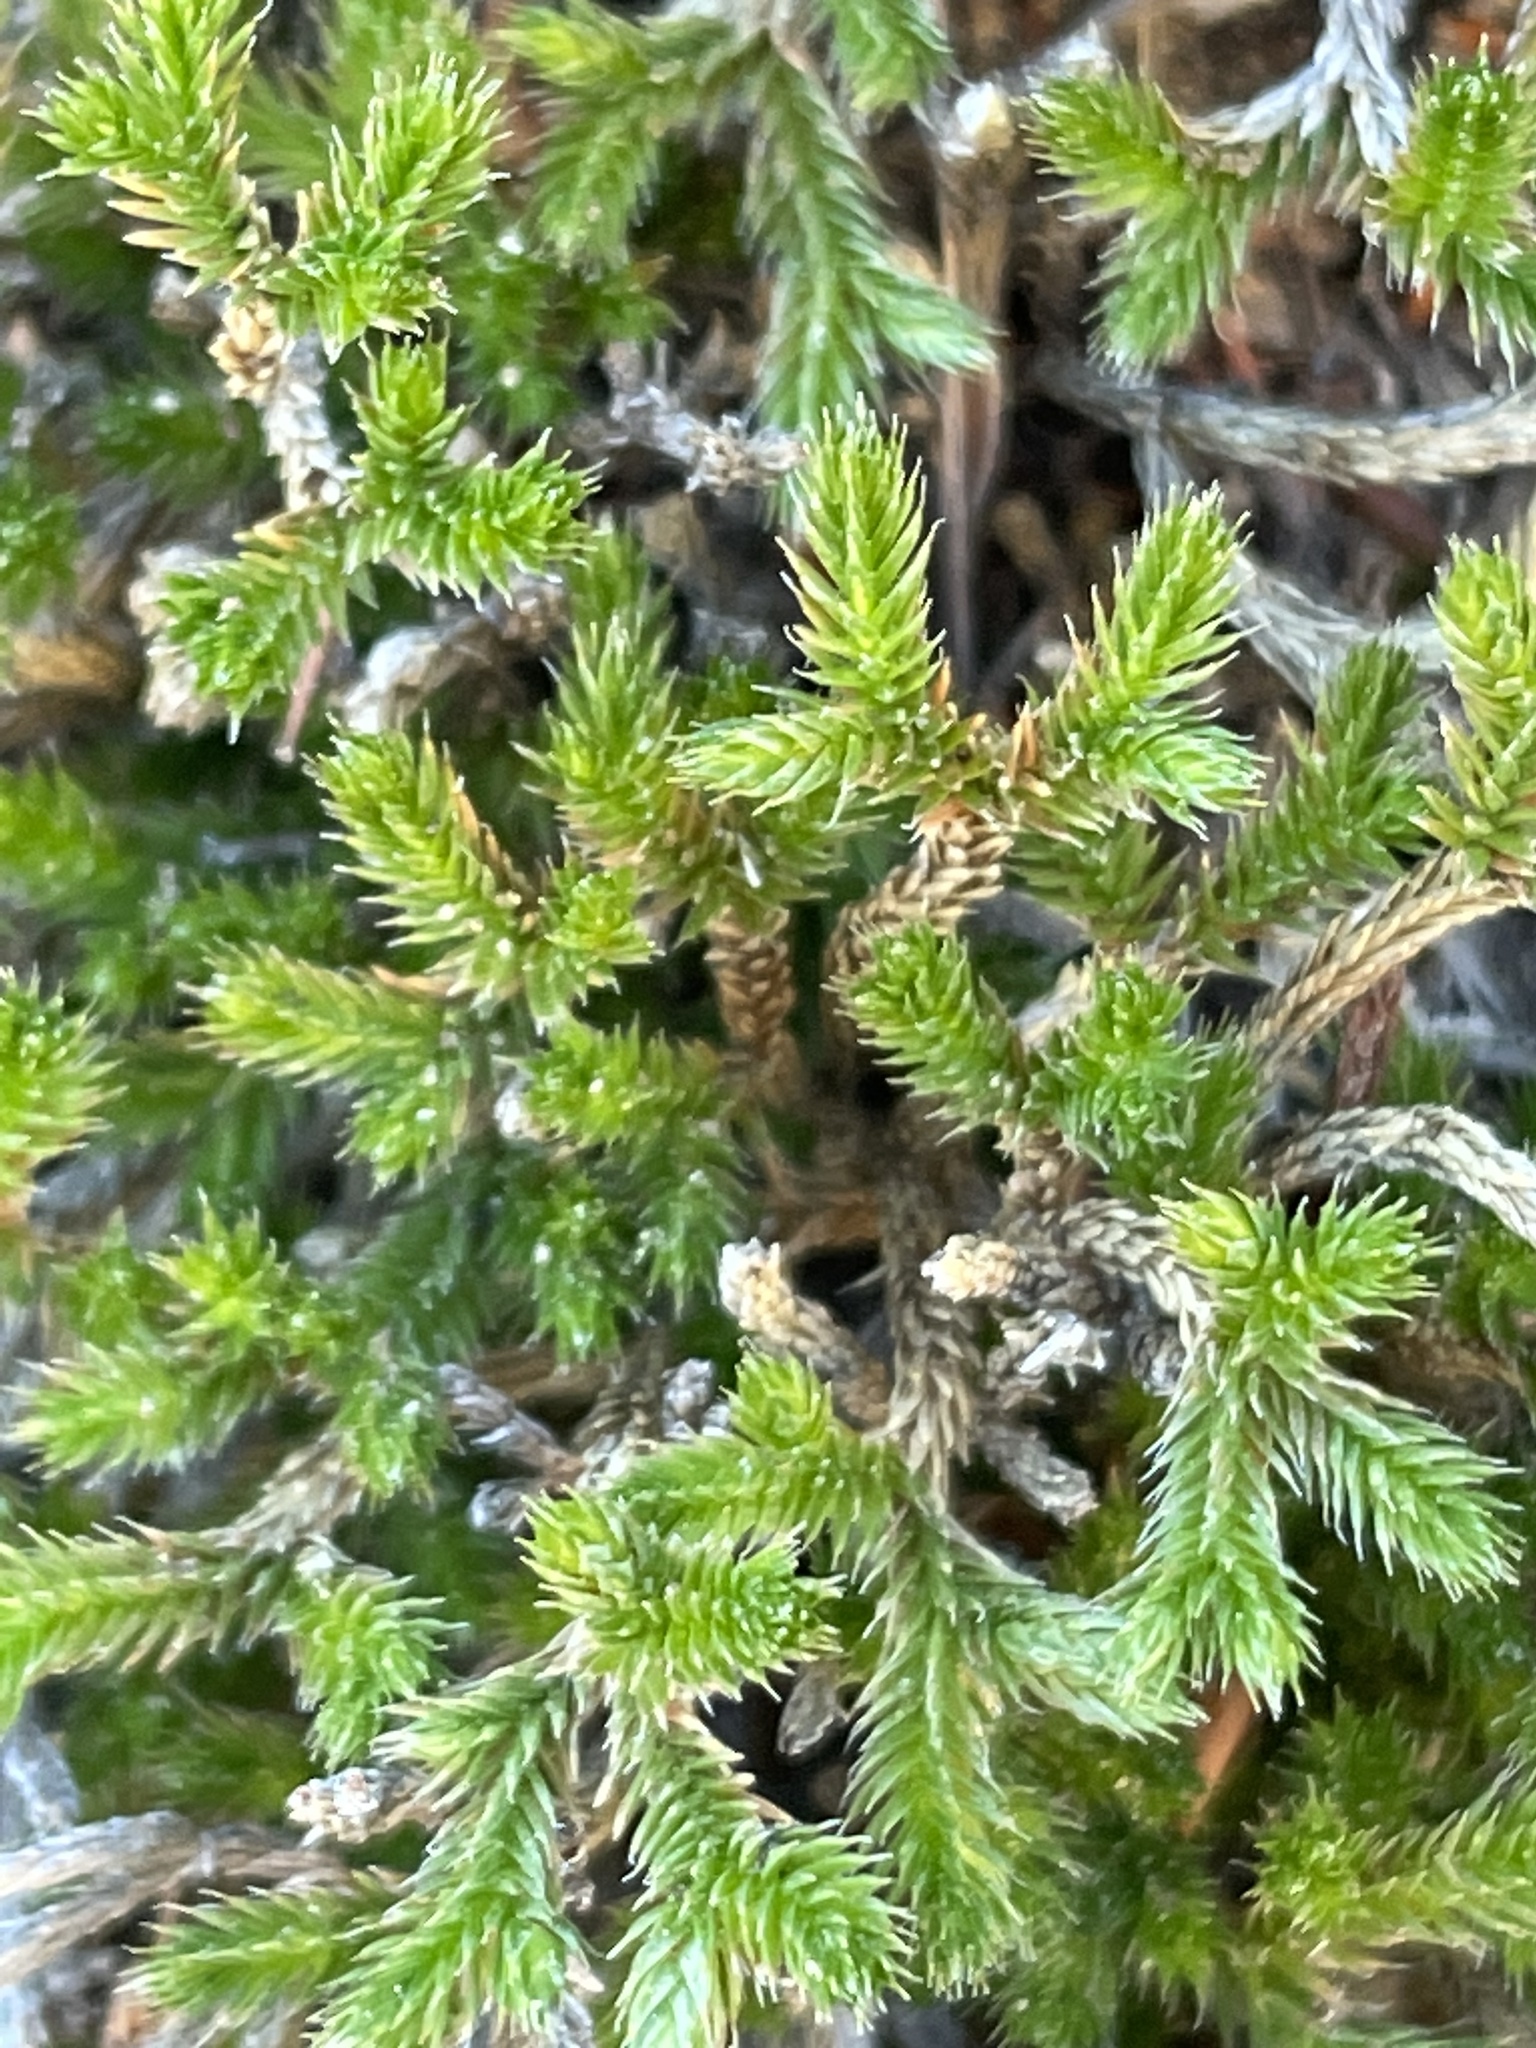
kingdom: Plantae
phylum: Tracheophyta
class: Lycopodiopsida
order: Selaginellales
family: Selaginellaceae
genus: Selaginella
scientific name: Selaginella bigelovii
